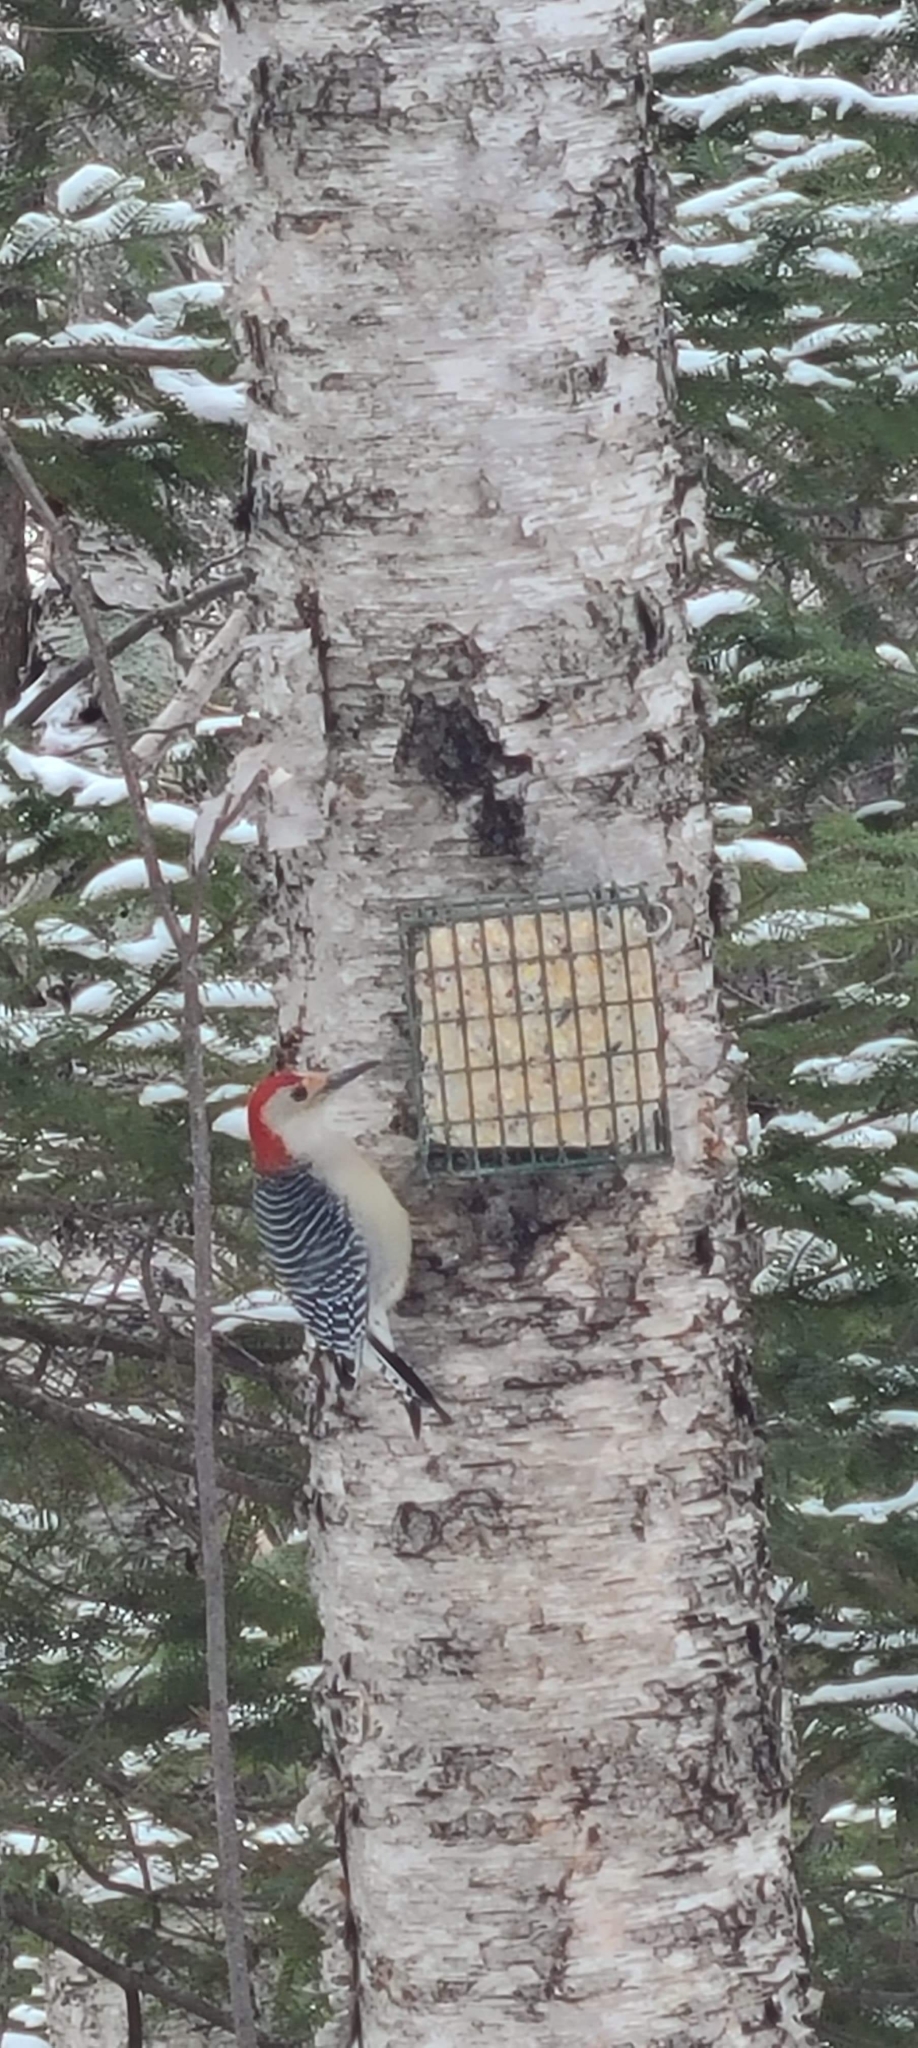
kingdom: Animalia
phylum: Chordata
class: Aves
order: Piciformes
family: Picidae
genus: Melanerpes
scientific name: Melanerpes carolinus
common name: Red-bellied woodpecker
